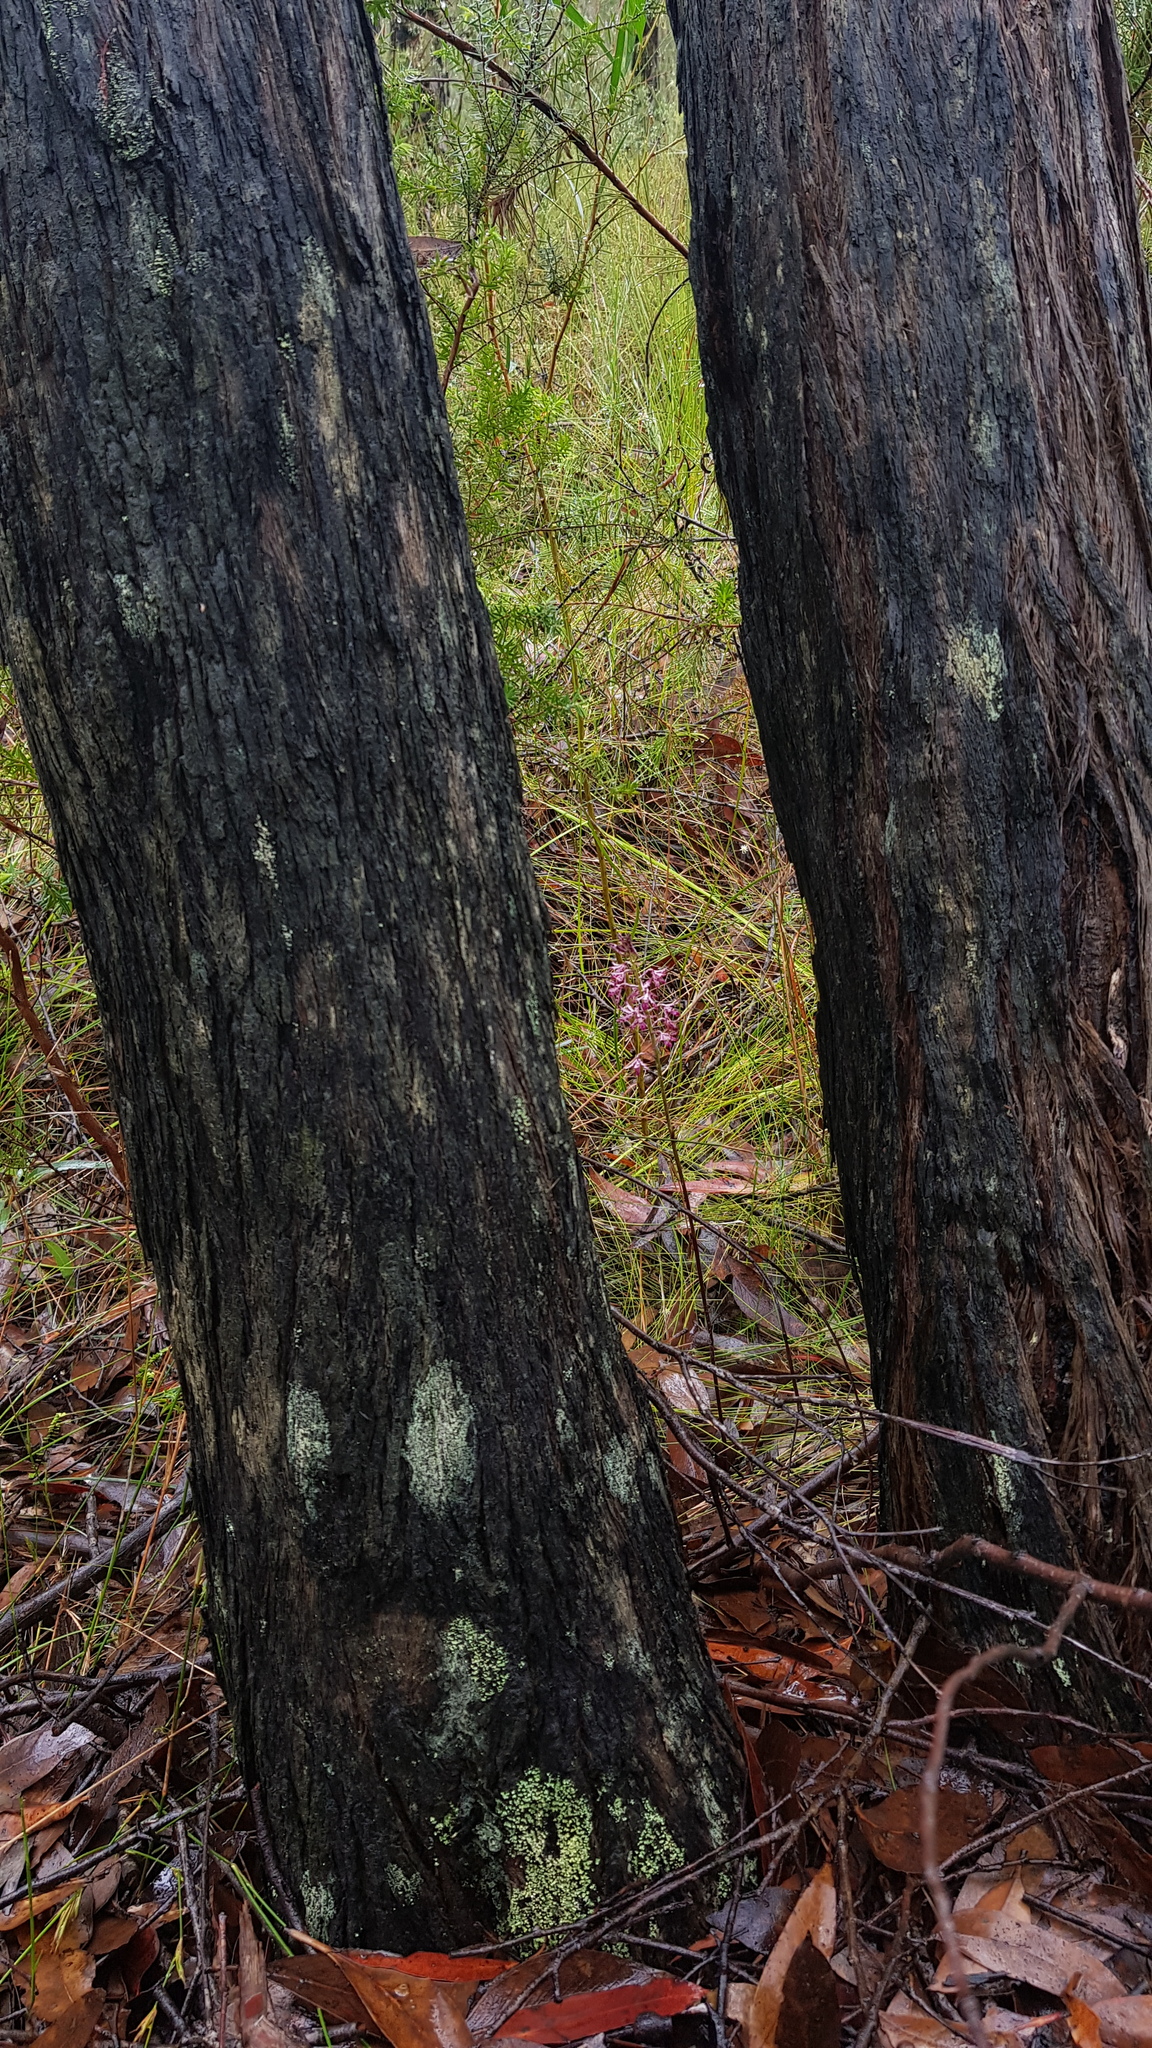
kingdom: Plantae
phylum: Tracheophyta
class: Liliopsida
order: Asparagales
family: Orchidaceae
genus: Dipodium
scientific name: Dipodium variegatum
